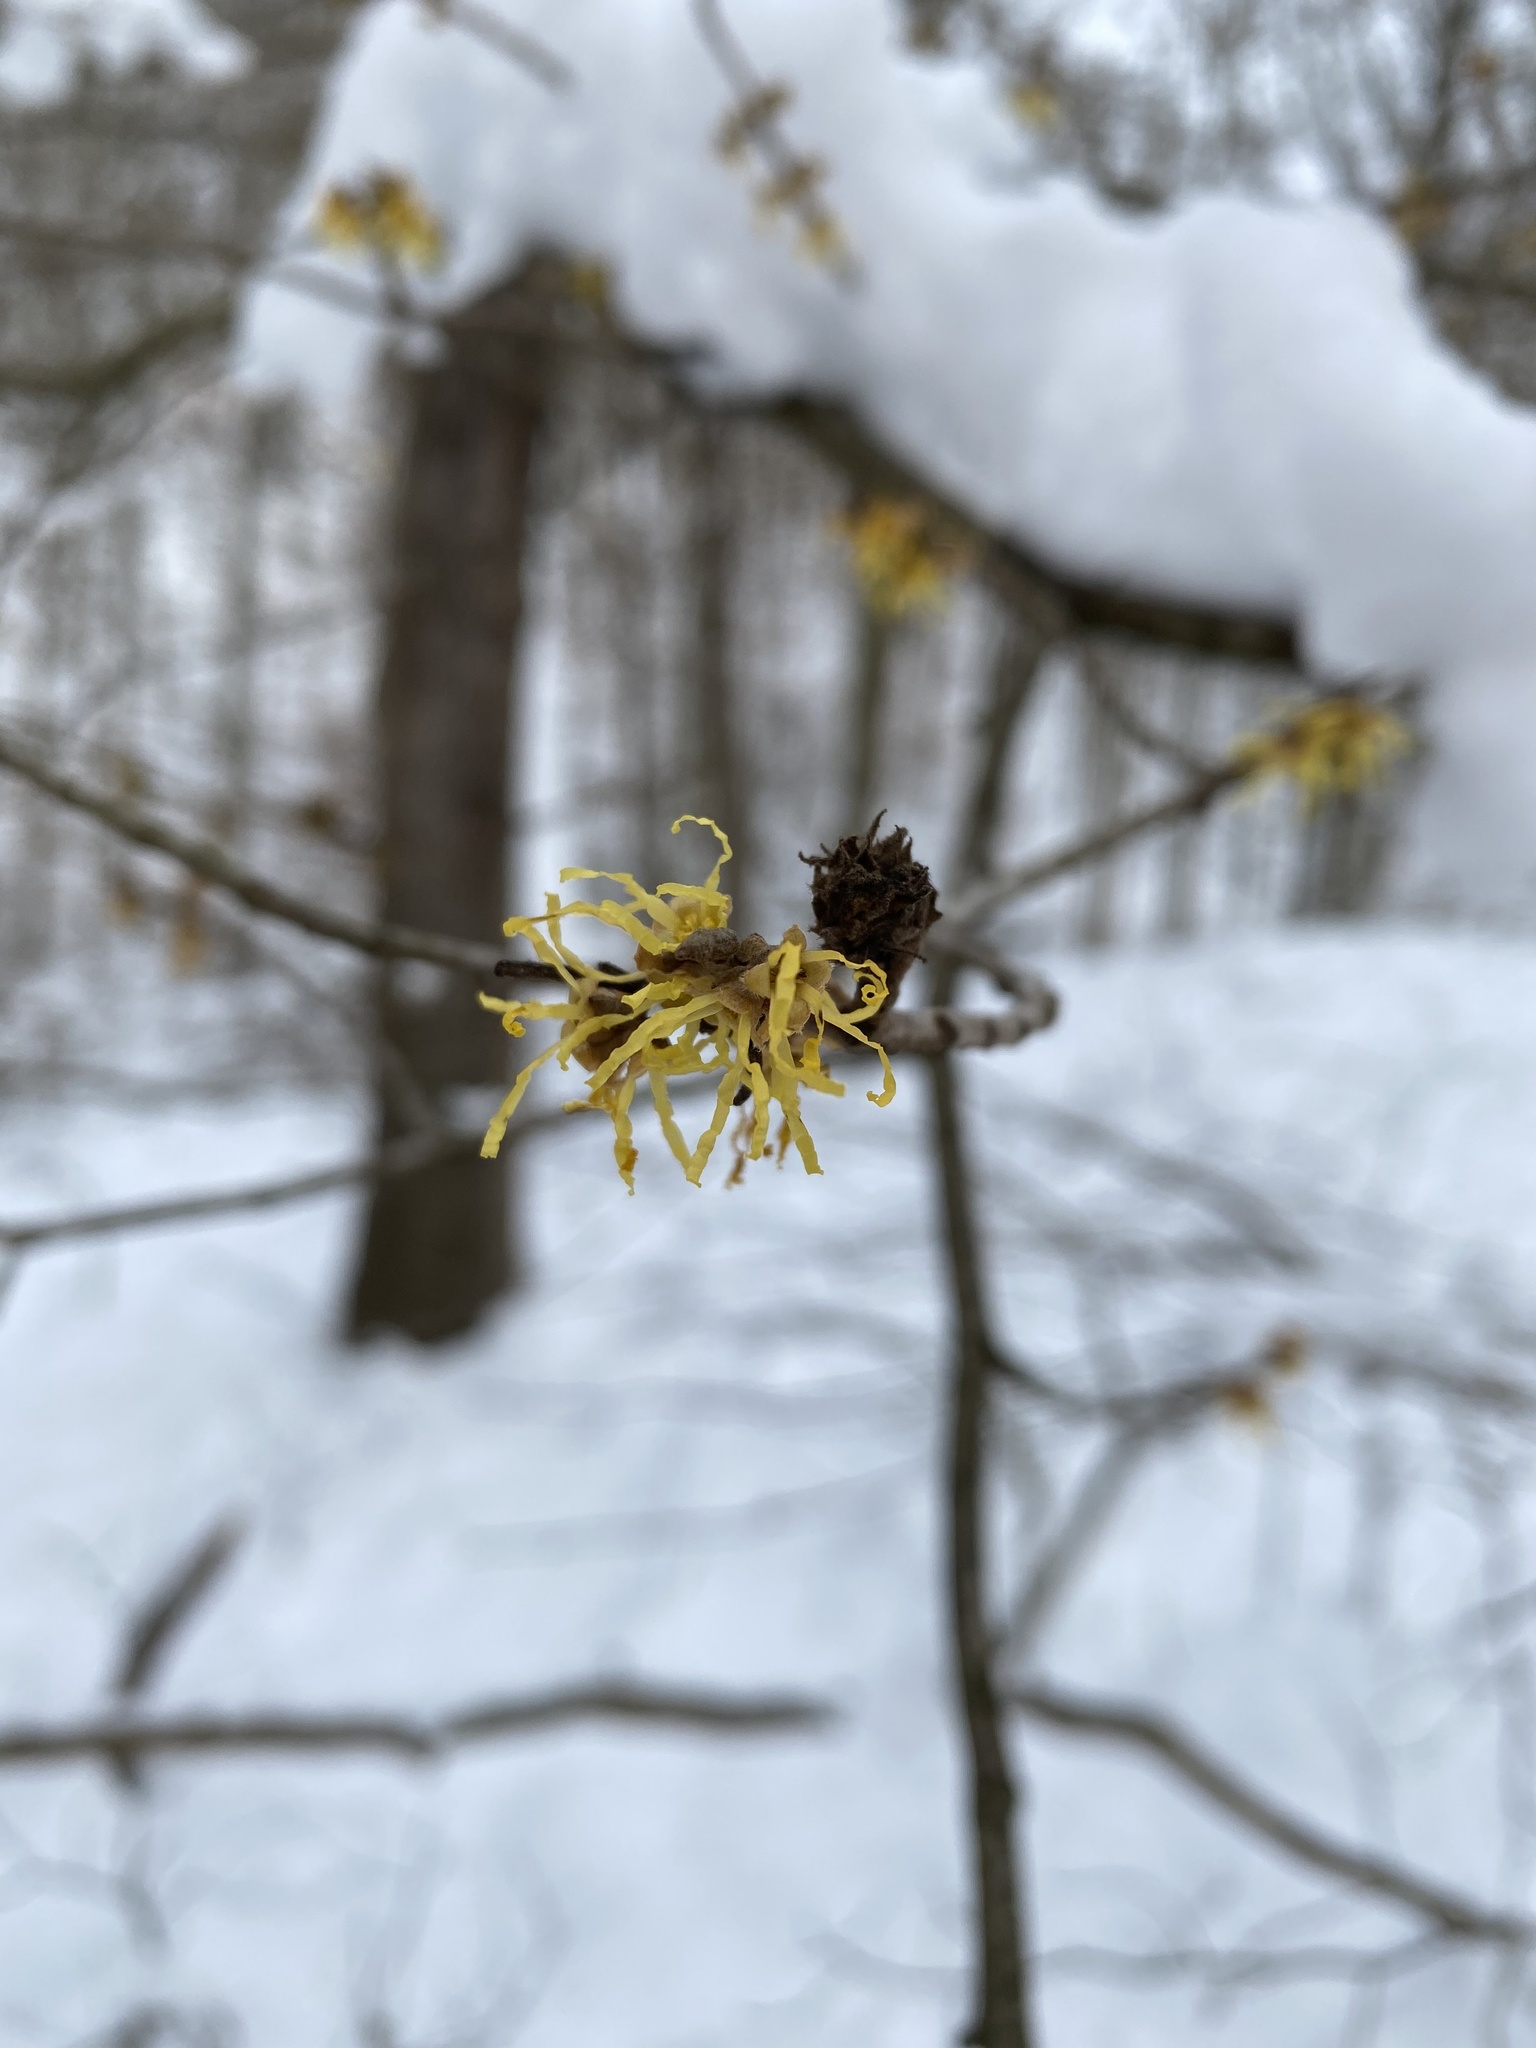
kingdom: Plantae
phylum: Tracheophyta
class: Magnoliopsida
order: Saxifragales
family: Hamamelidaceae
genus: Hamamelis
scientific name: Hamamelis virginiana
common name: Witch-hazel
